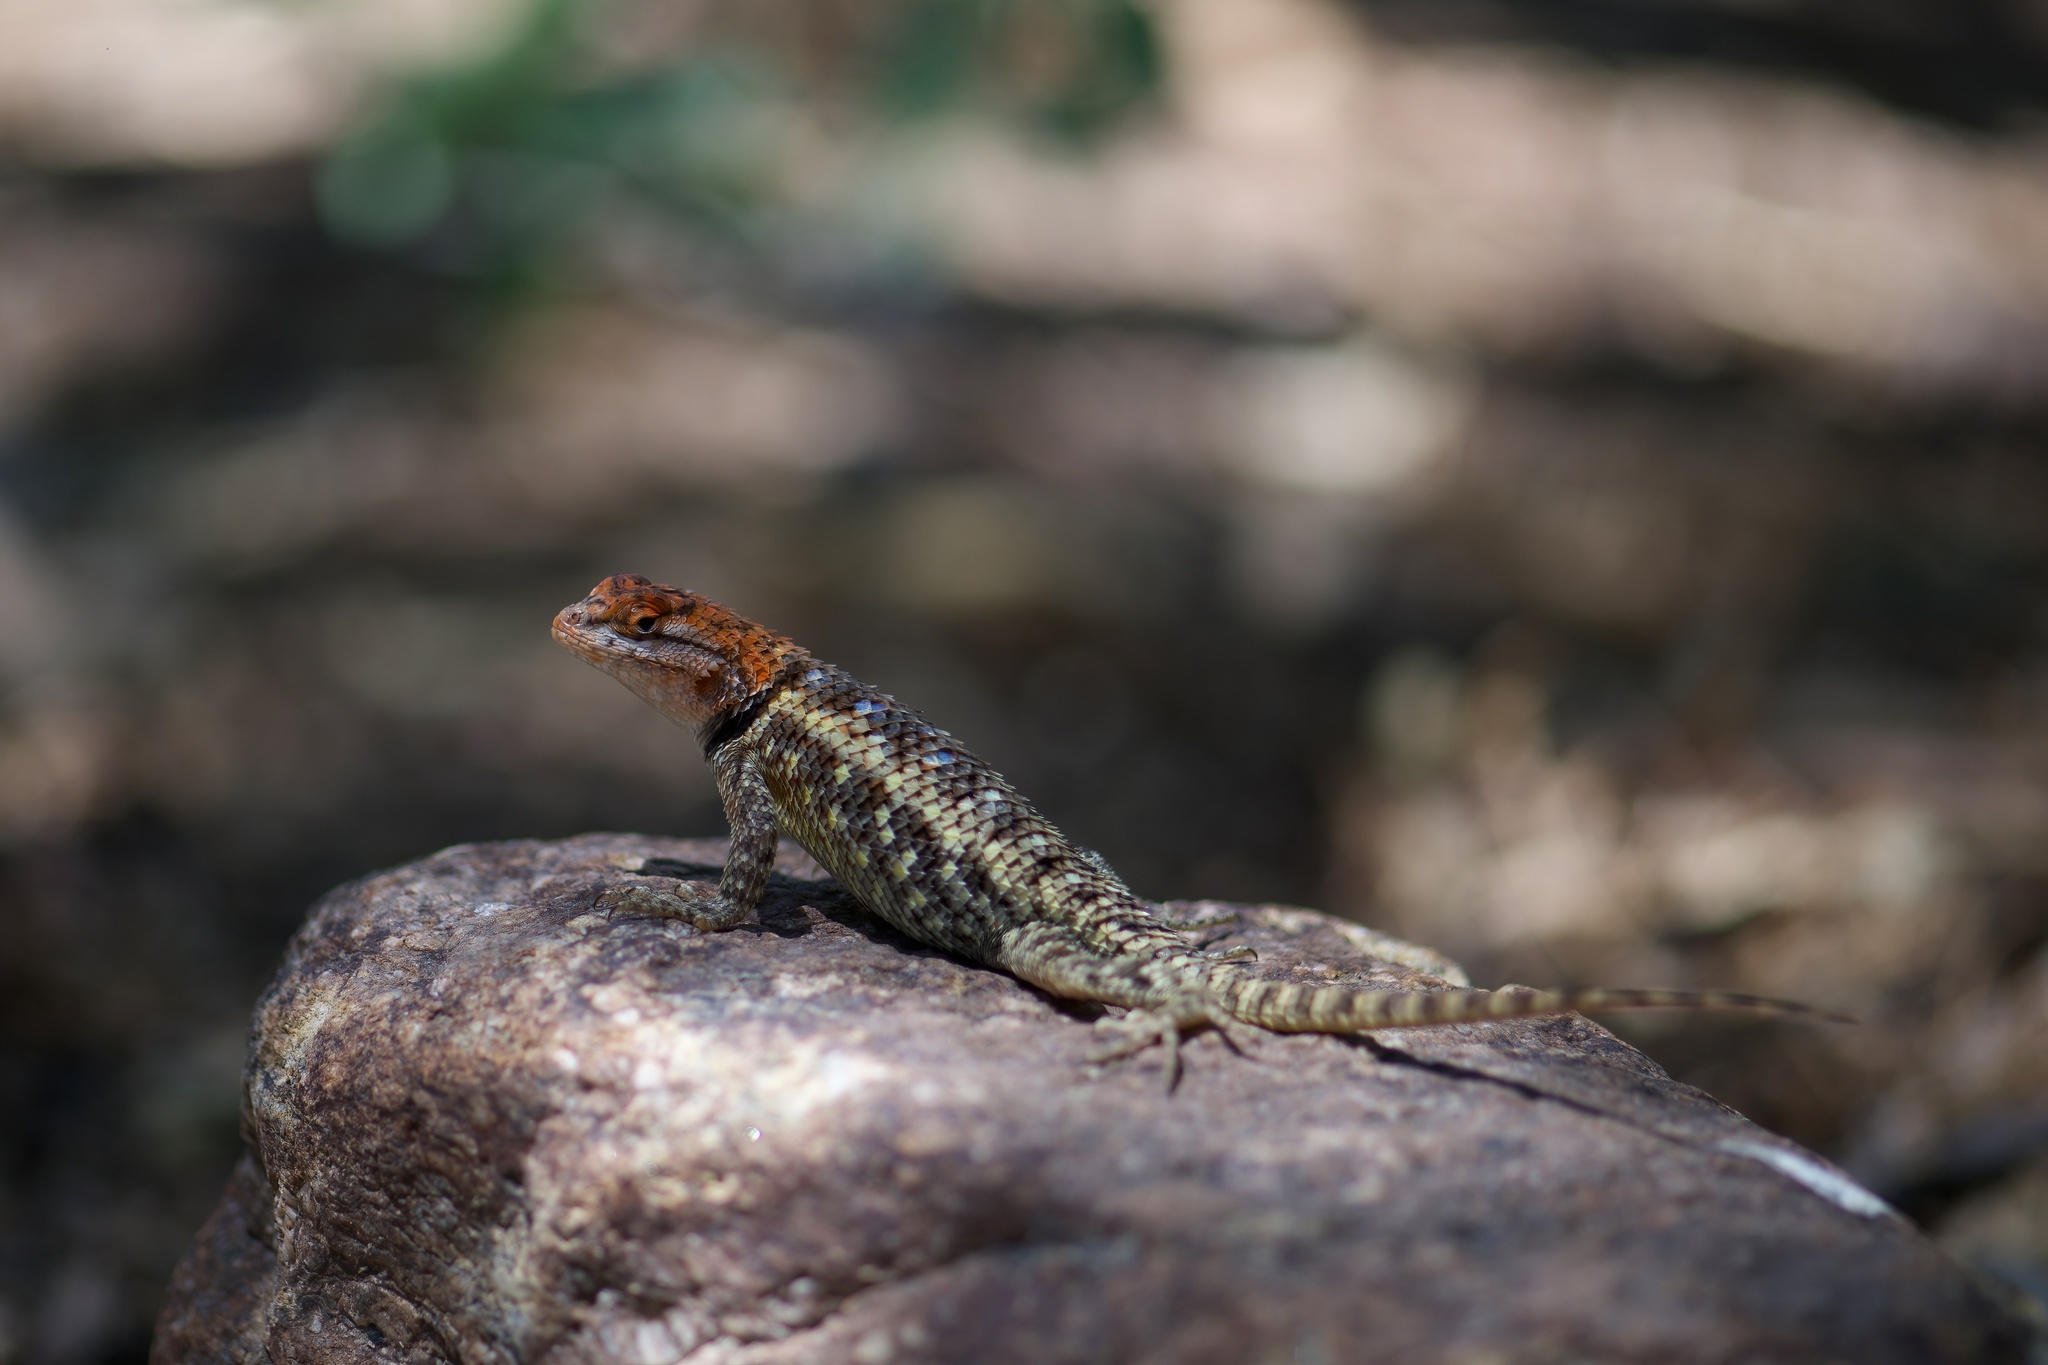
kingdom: Animalia
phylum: Chordata
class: Squamata
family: Phrynosomatidae
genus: Sceloporus
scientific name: Sceloporus magister
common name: Desert spiny lizard
